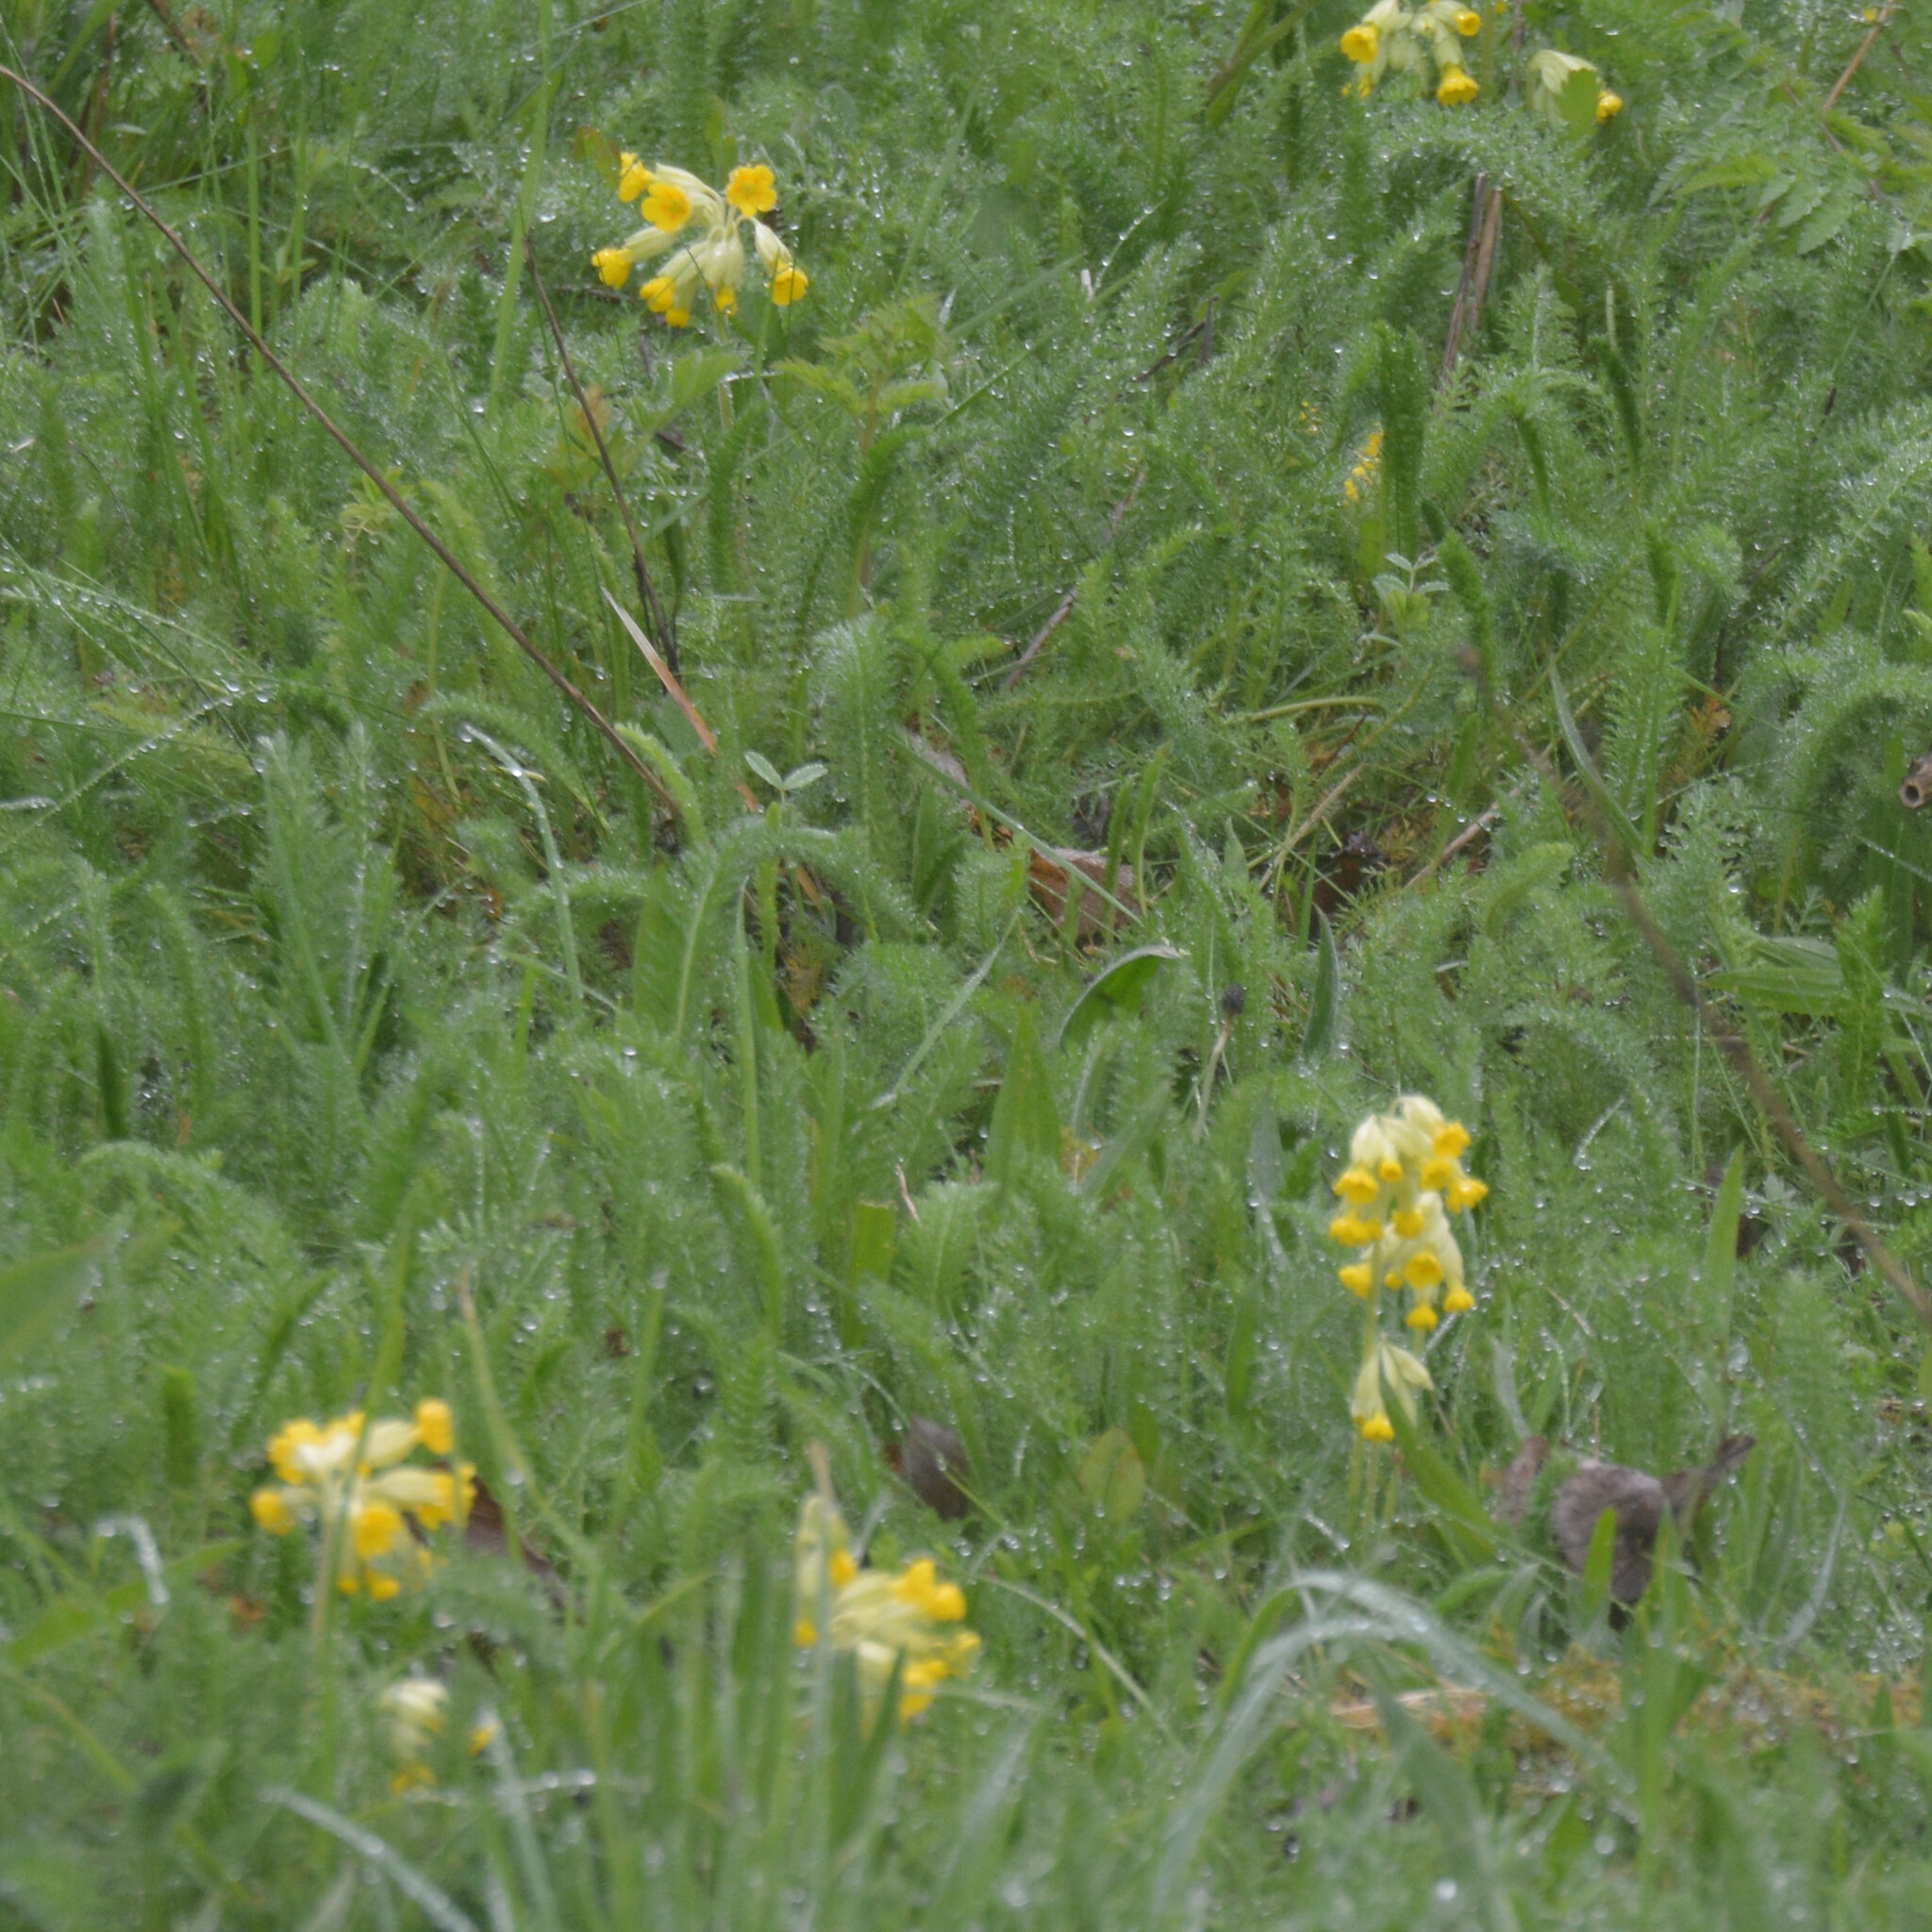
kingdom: Plantae
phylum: Tracheophyta
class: Magnoliopsida
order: Ericales
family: Primulaceae
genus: Primula
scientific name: Primula veris
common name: Cowslip
